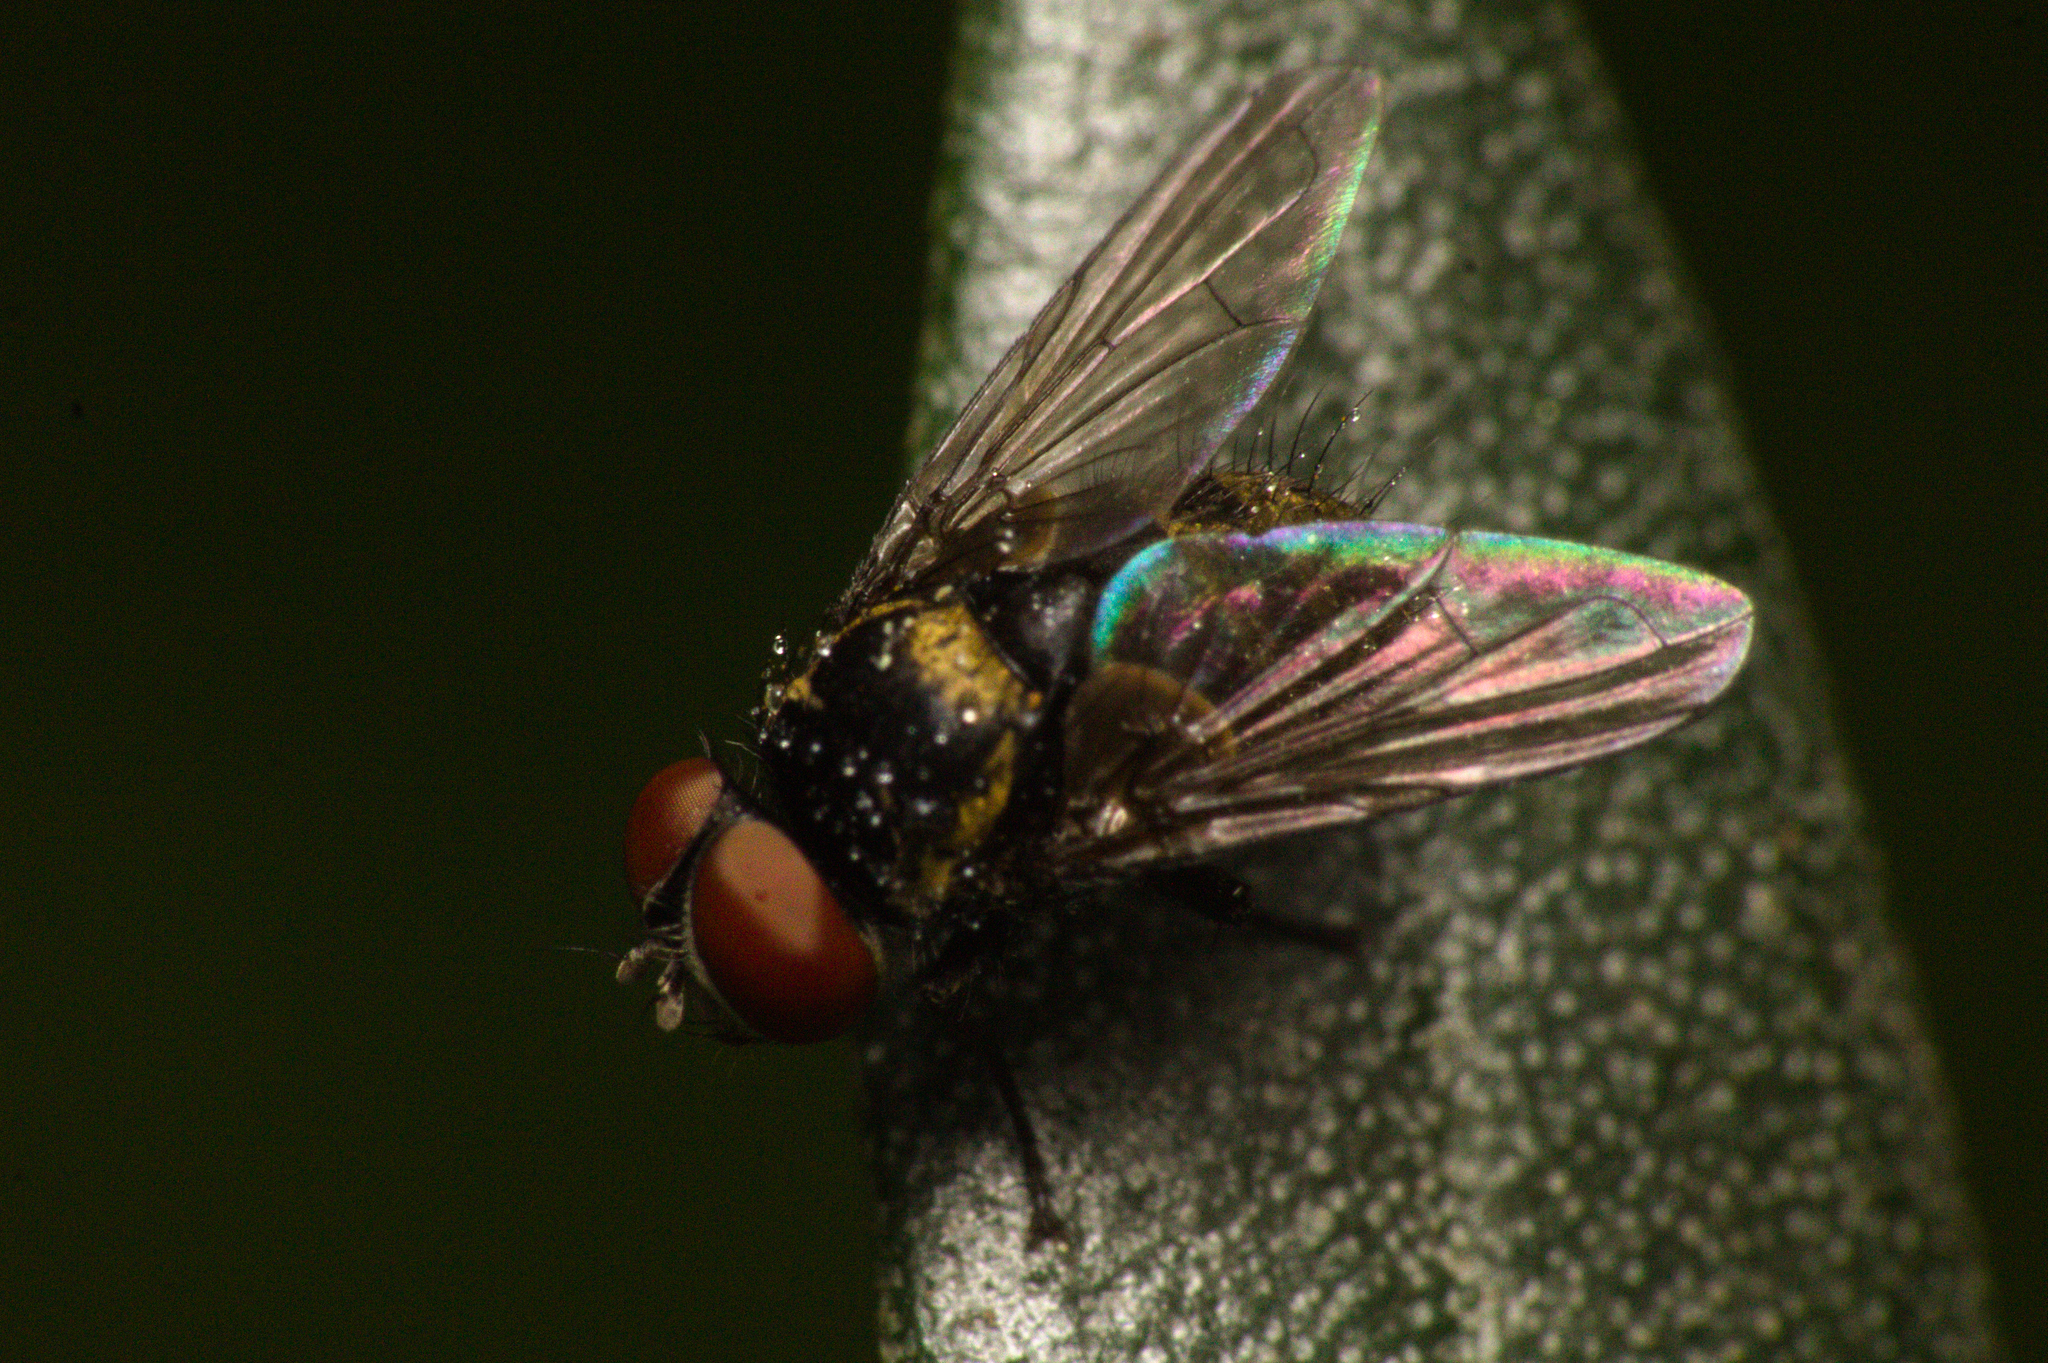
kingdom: Animalia
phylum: Arthropoda
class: Insecta
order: Diptera
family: Tachinidae
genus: Strongygaster
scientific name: Strongygaster brasiliensis
